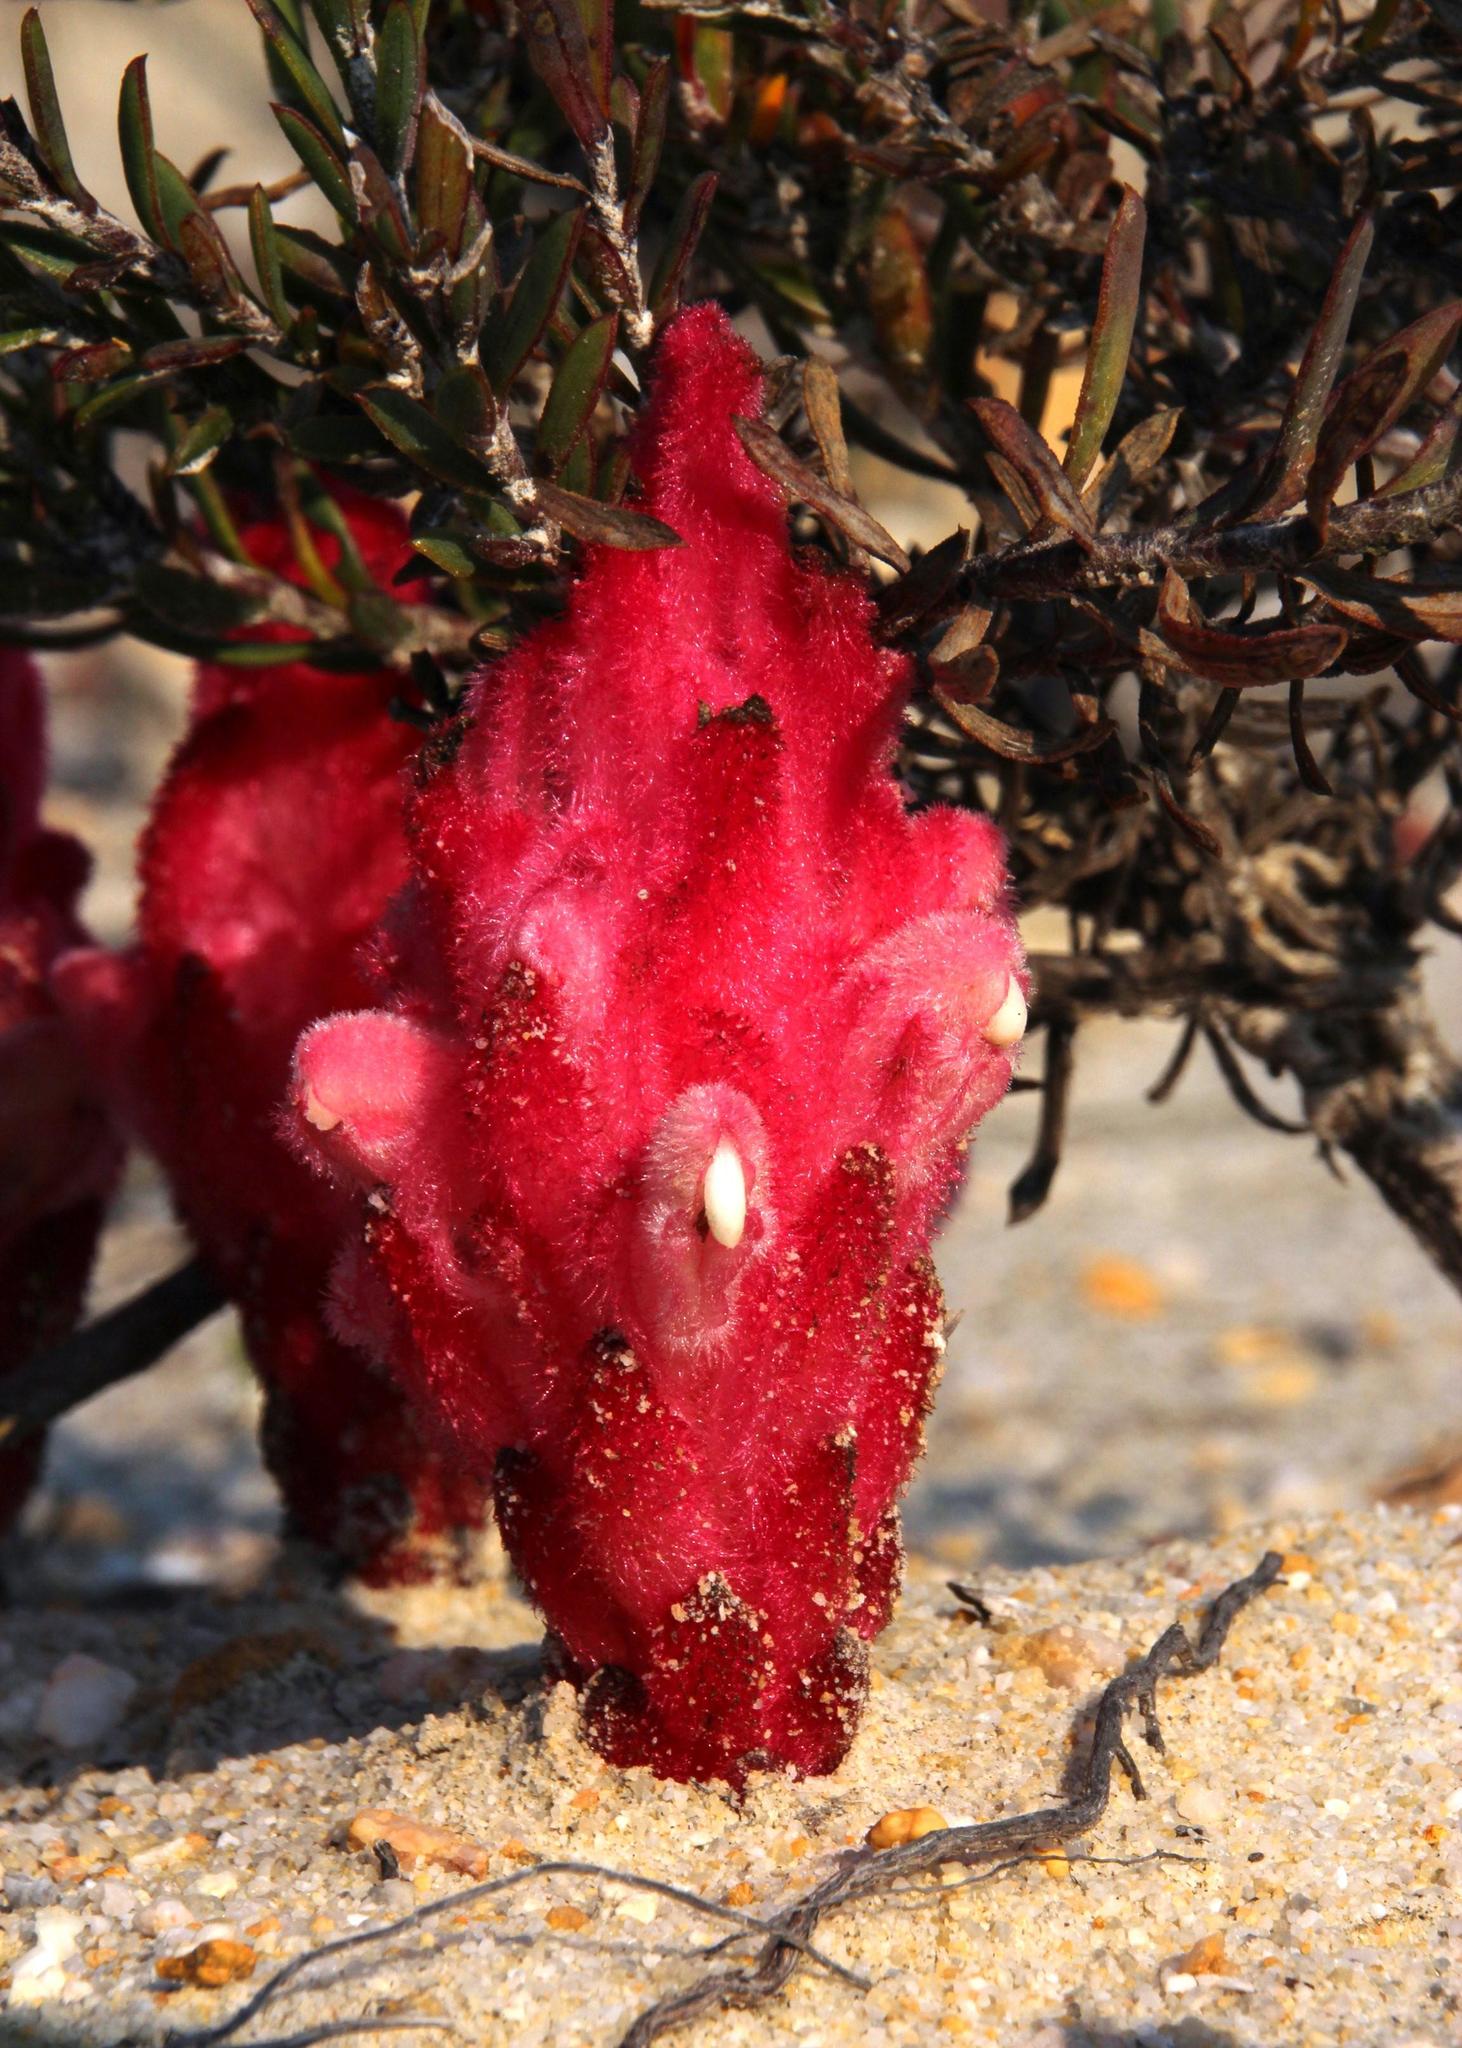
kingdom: Plantae
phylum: Tracheophyta
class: Magnoliopsida
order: Lamiales
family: Orobanchaceae
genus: Hyobanche
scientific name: Hyobanche sanguinea
